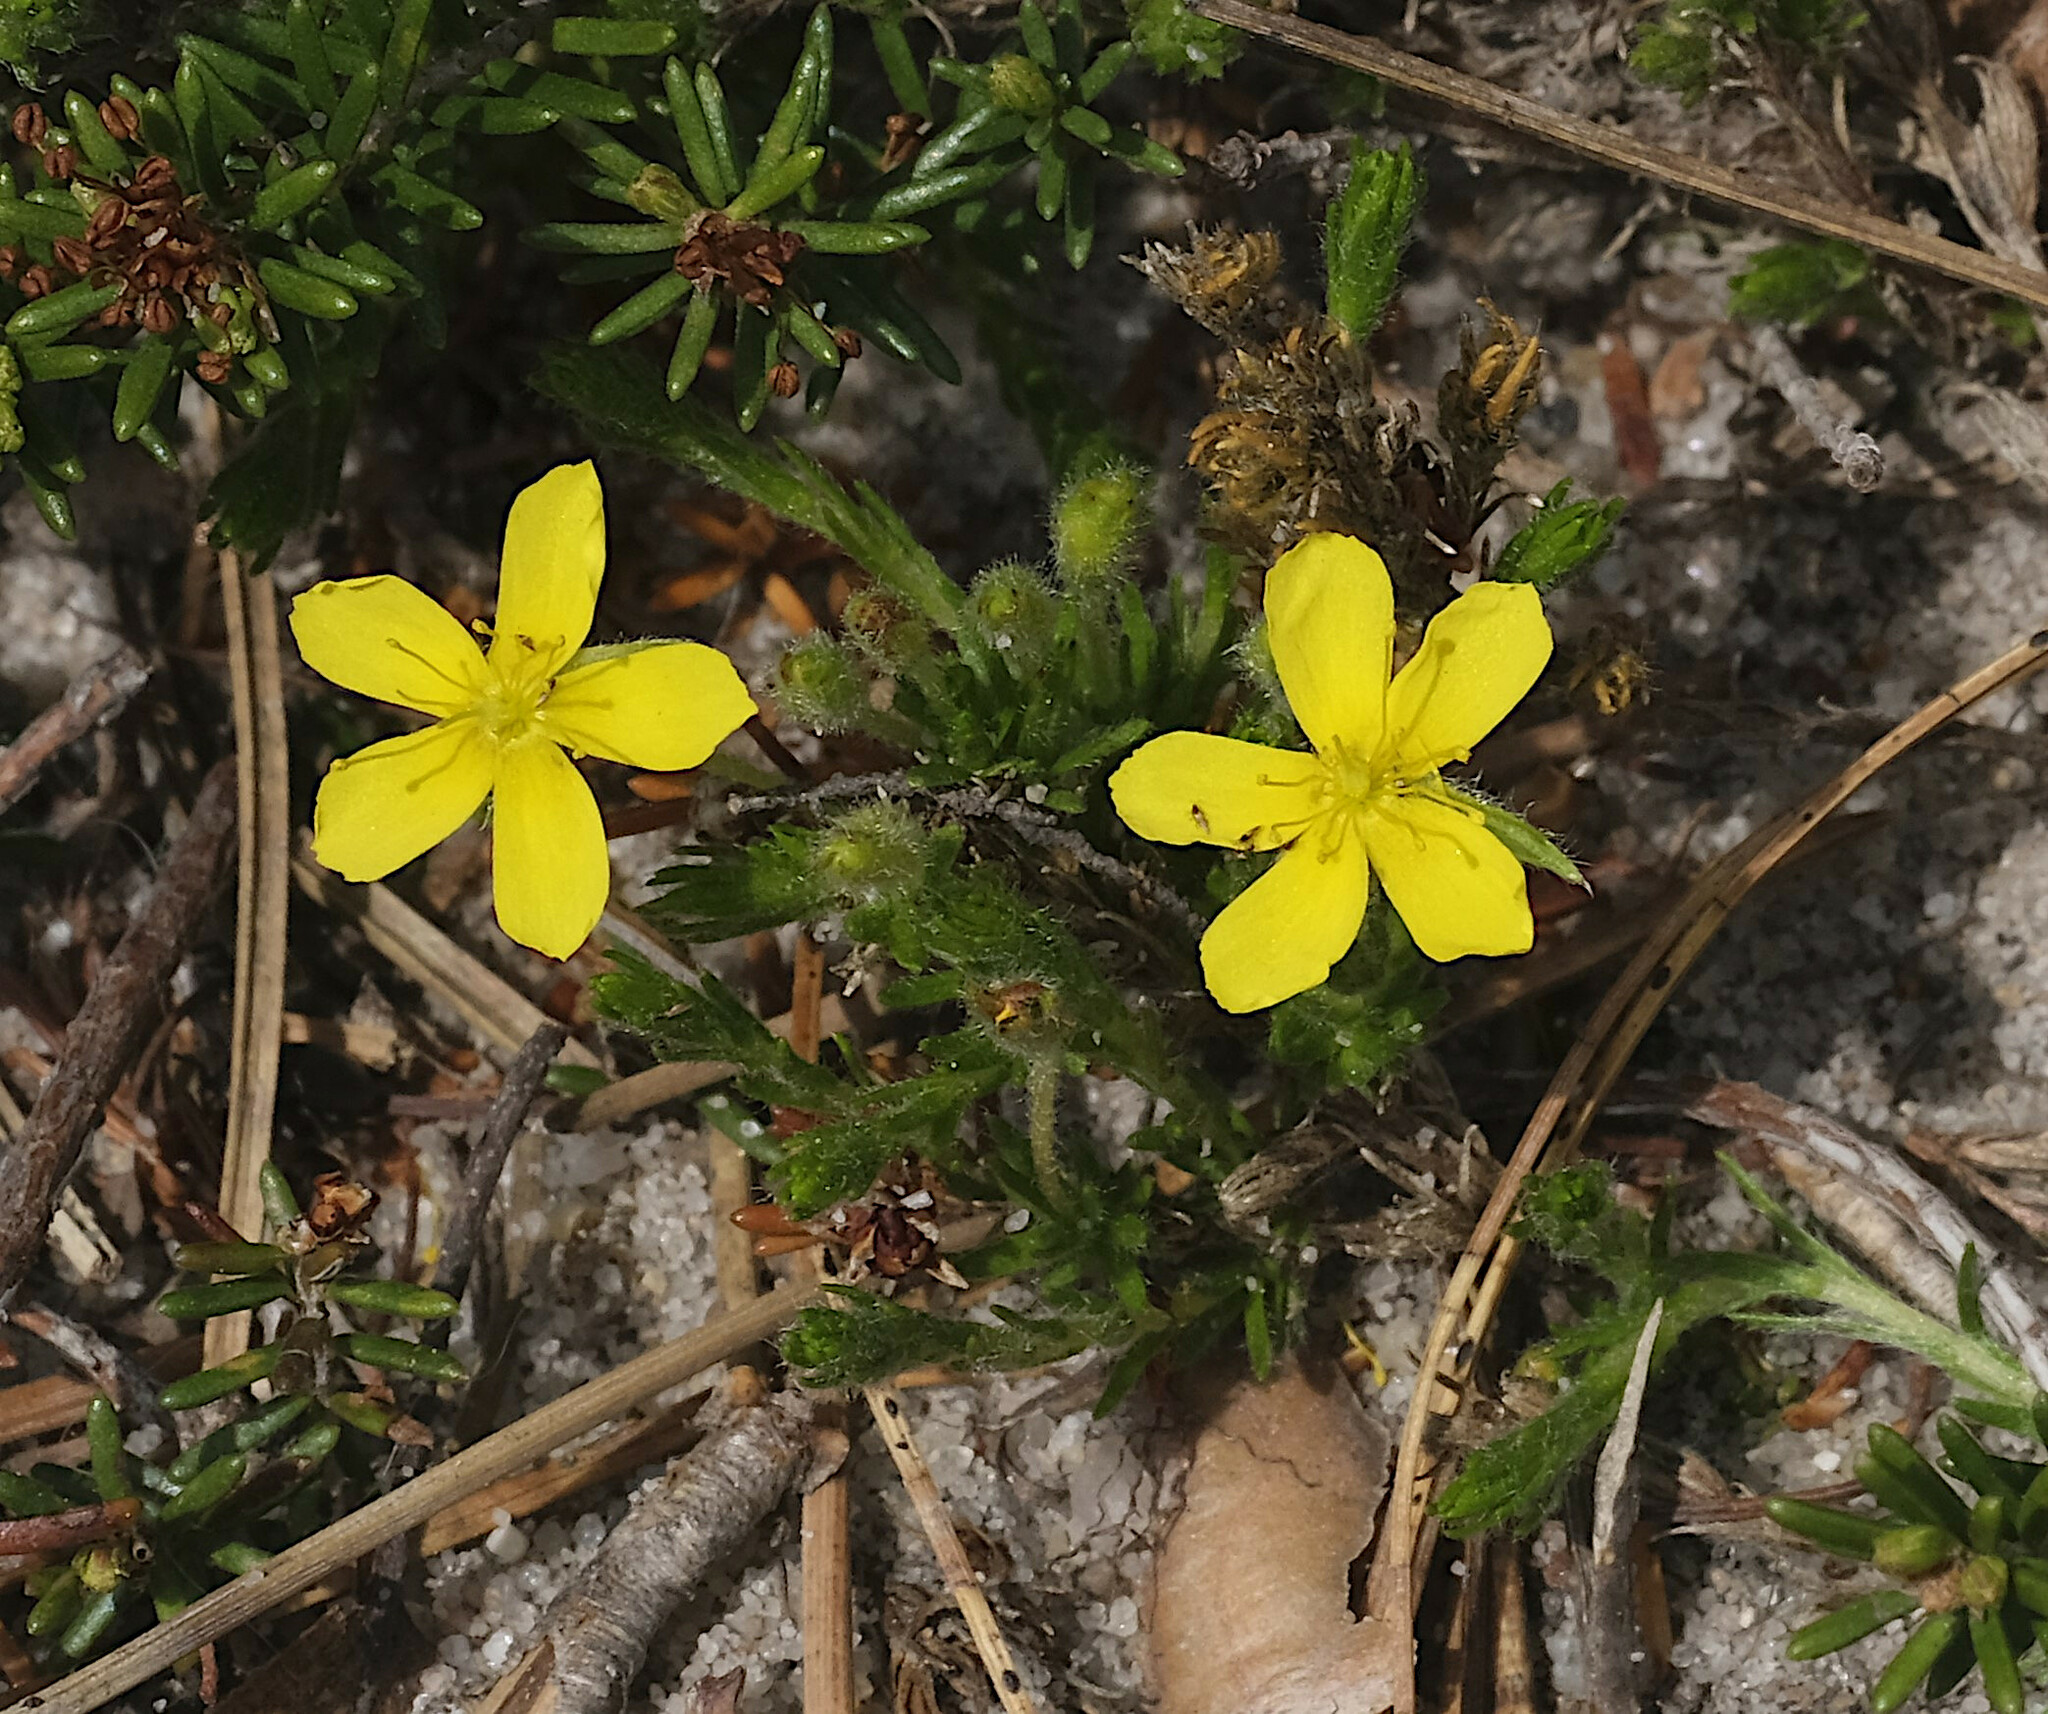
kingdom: Plantae
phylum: Tracheophyta
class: Magnoliopsida
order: Malvales
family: Cistaceae
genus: Hudsonia
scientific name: Hudsonia ericoides
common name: Golden-heather
